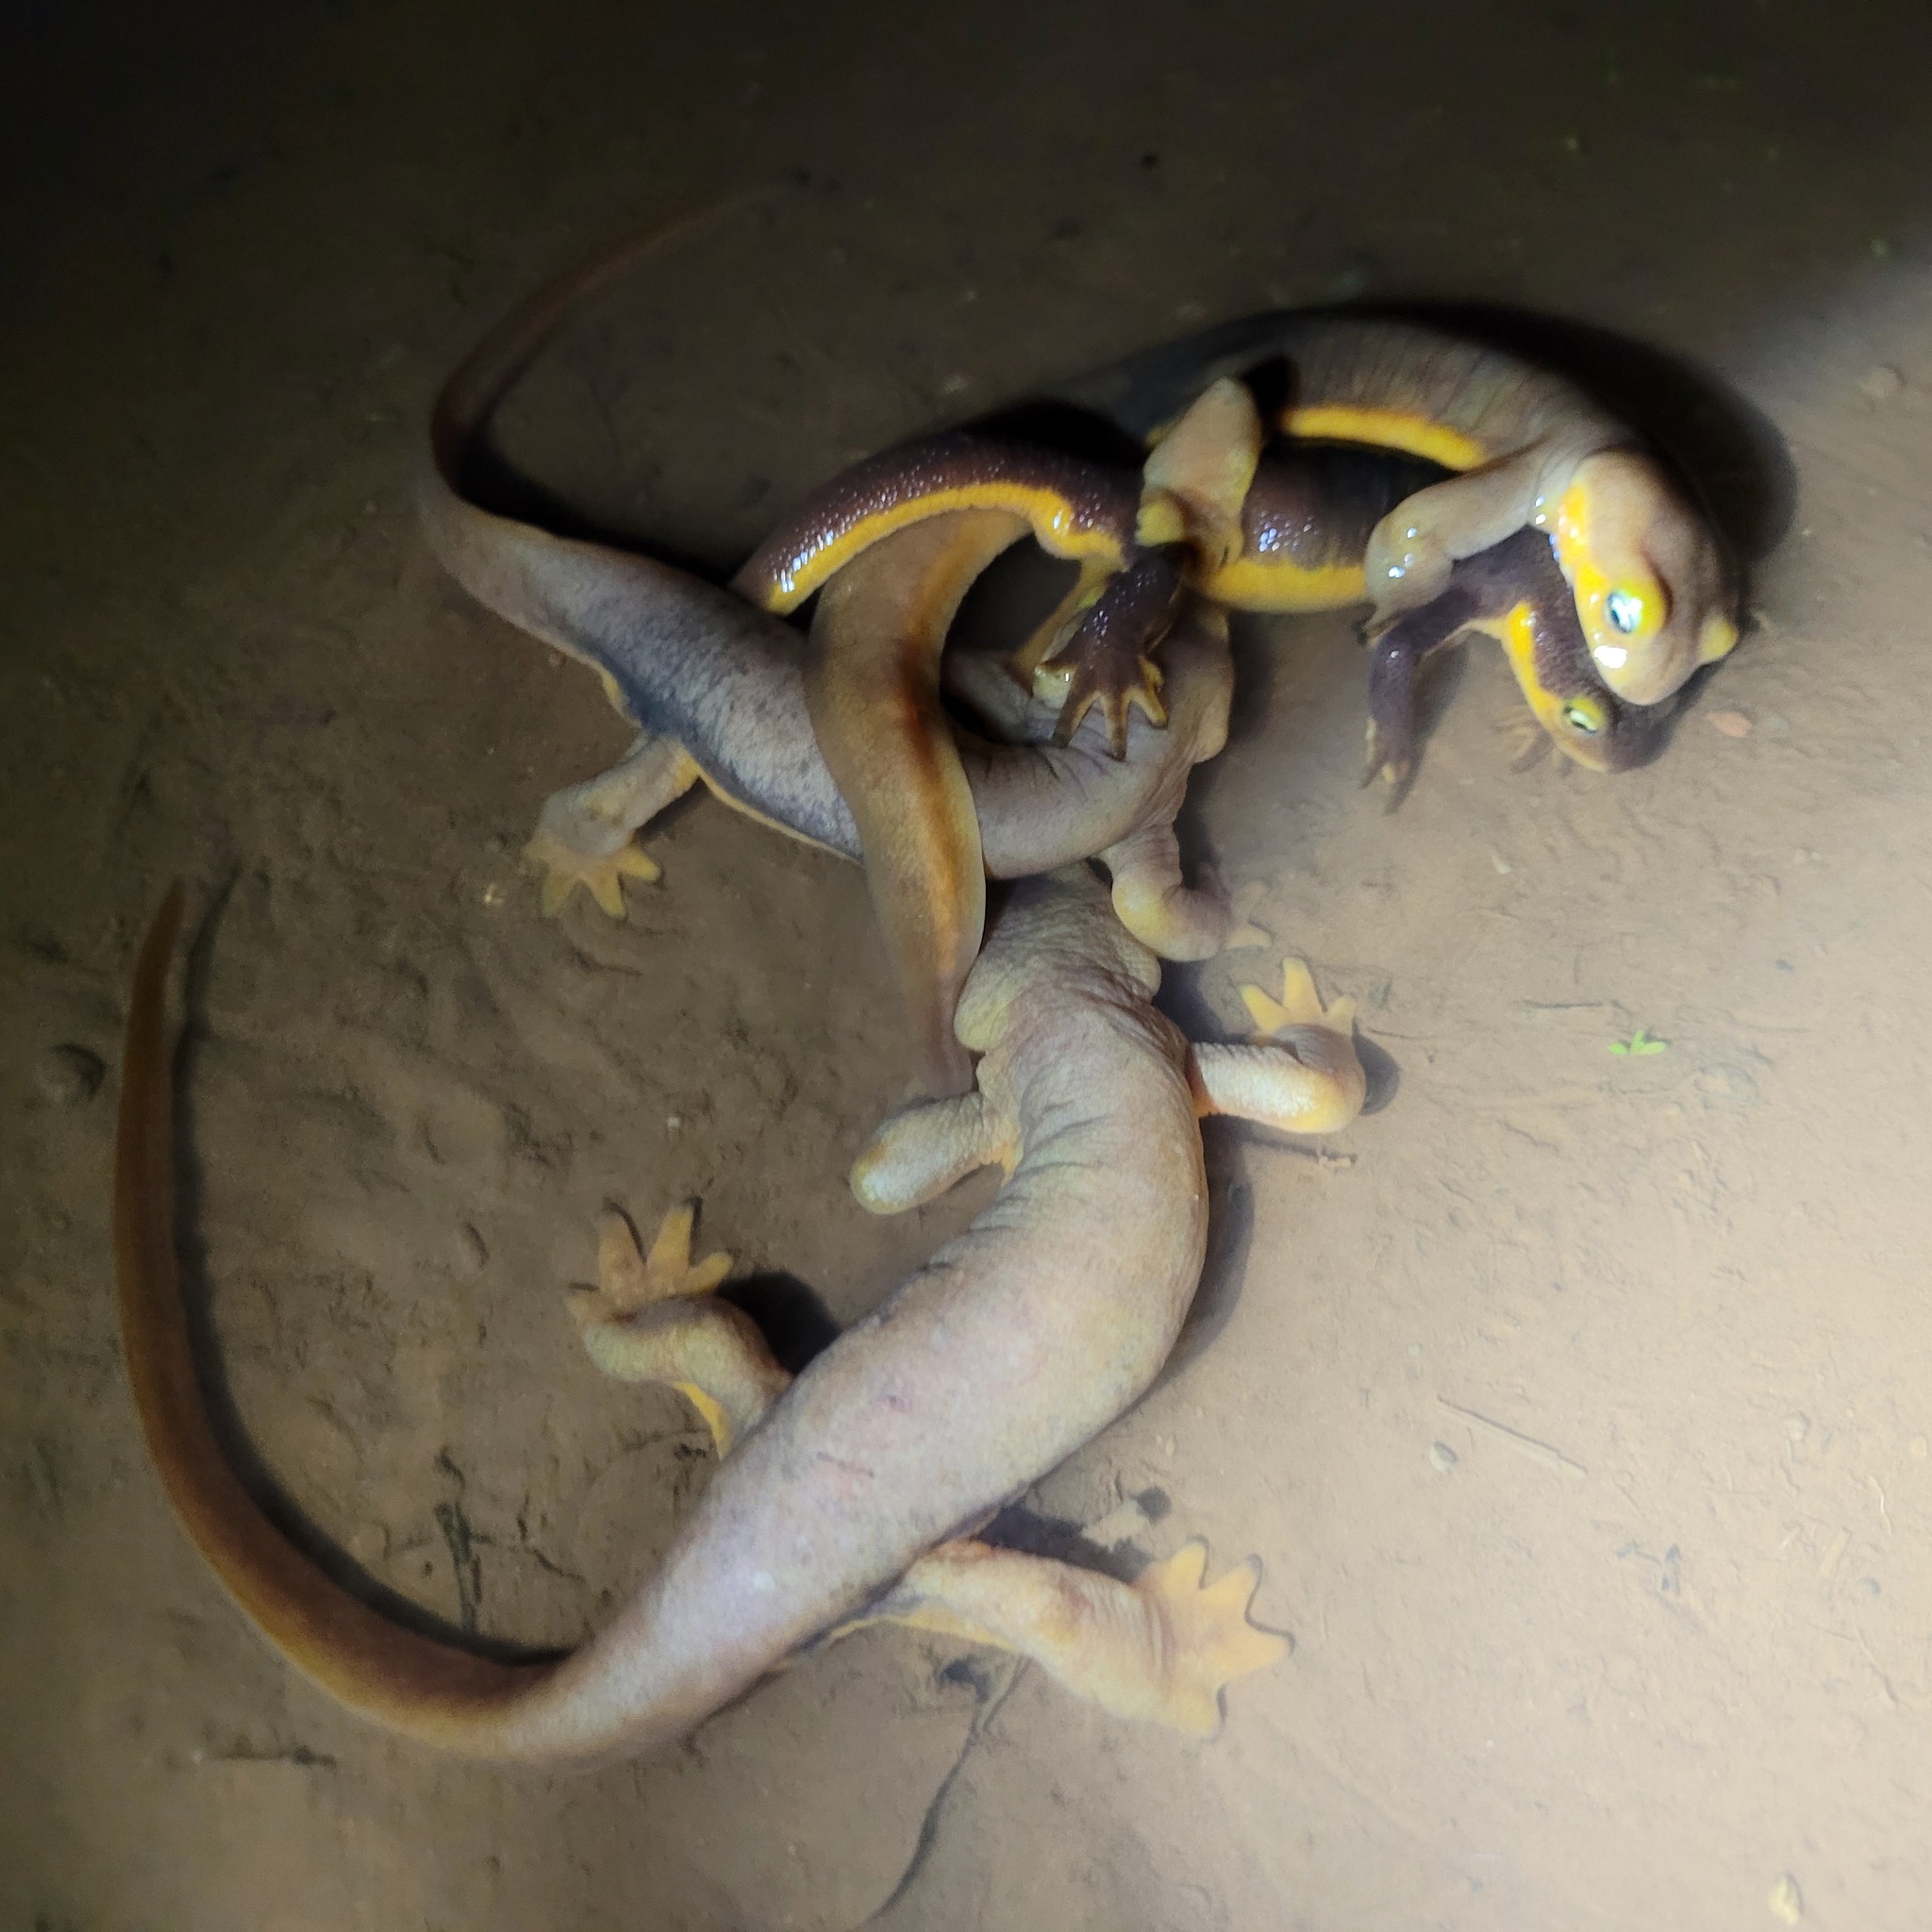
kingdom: Animalia
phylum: Chordata
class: Amphibia
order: Caudata
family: Salamandridae
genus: Taricha
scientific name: Taricha torosa
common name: California newt
